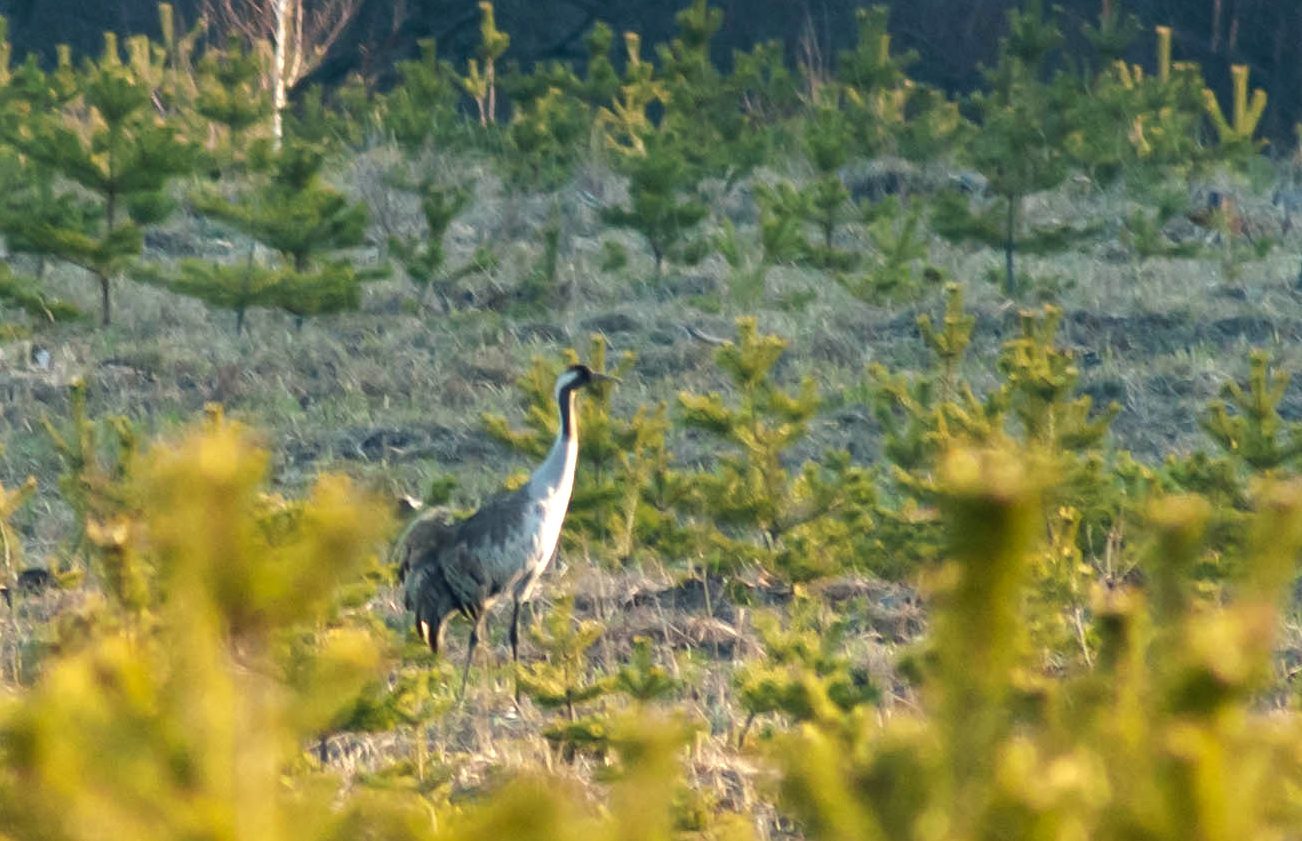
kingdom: Animalia
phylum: Chordata
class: Aves
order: Gruiformes
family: Gruidae
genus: Grus
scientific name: Grus grus
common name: Common crane
